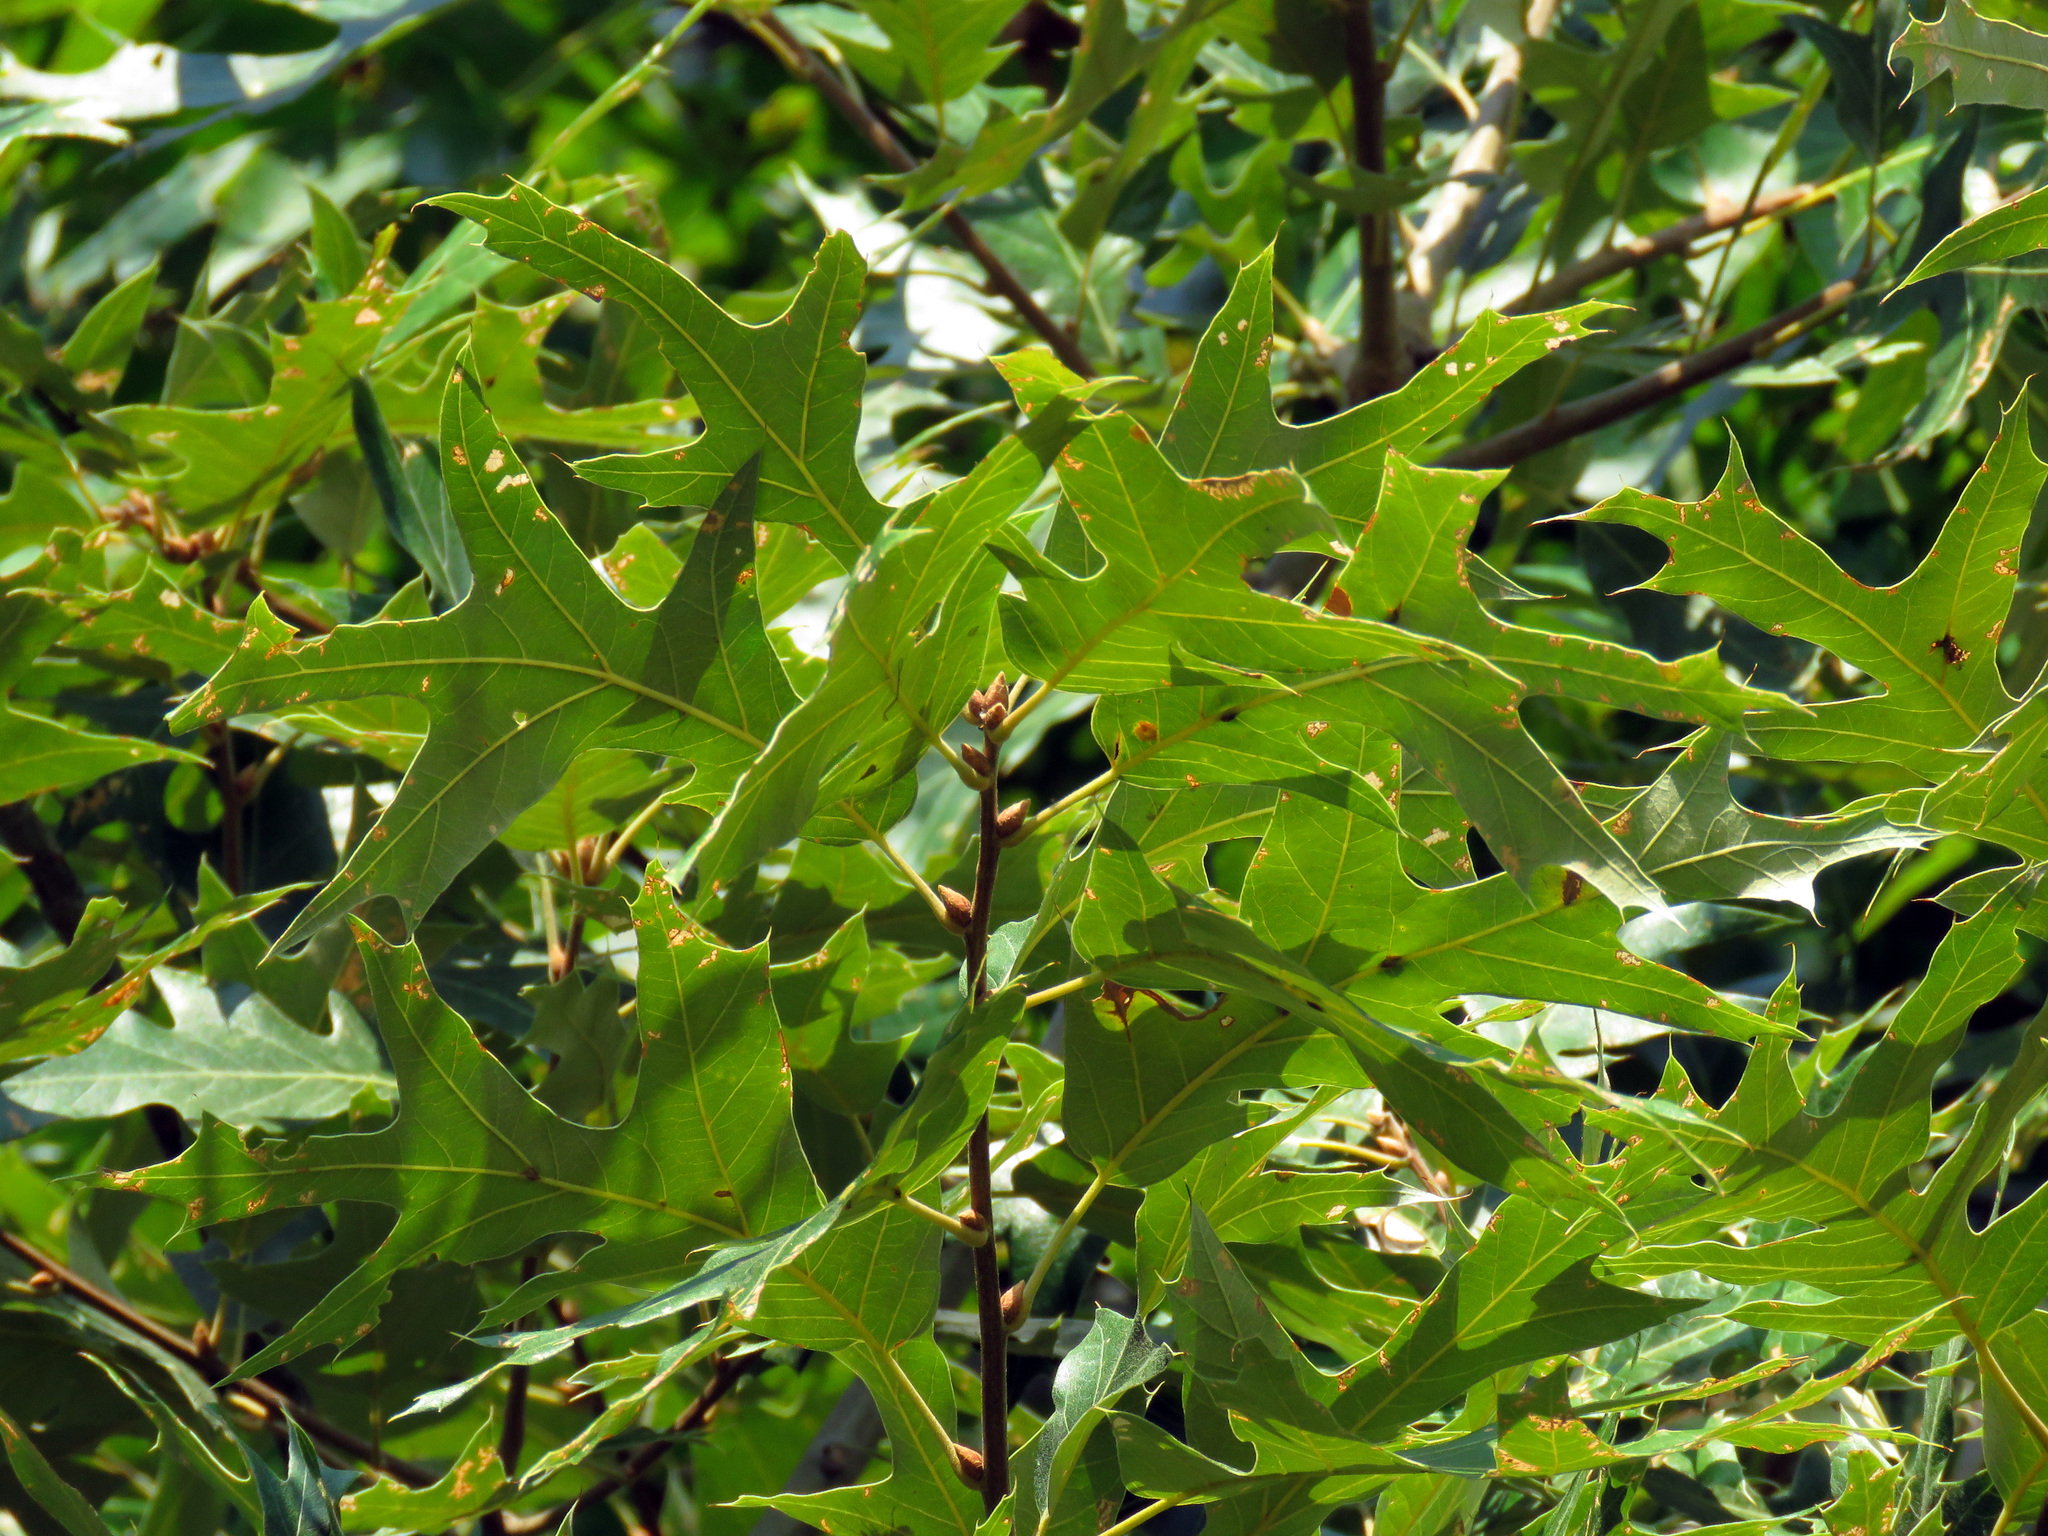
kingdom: Plantae
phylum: Tracheophyta
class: Magnoliopsida
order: Fagales
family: Fagaceae
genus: Quercus
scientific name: Quercus falcata
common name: Southern red oak
